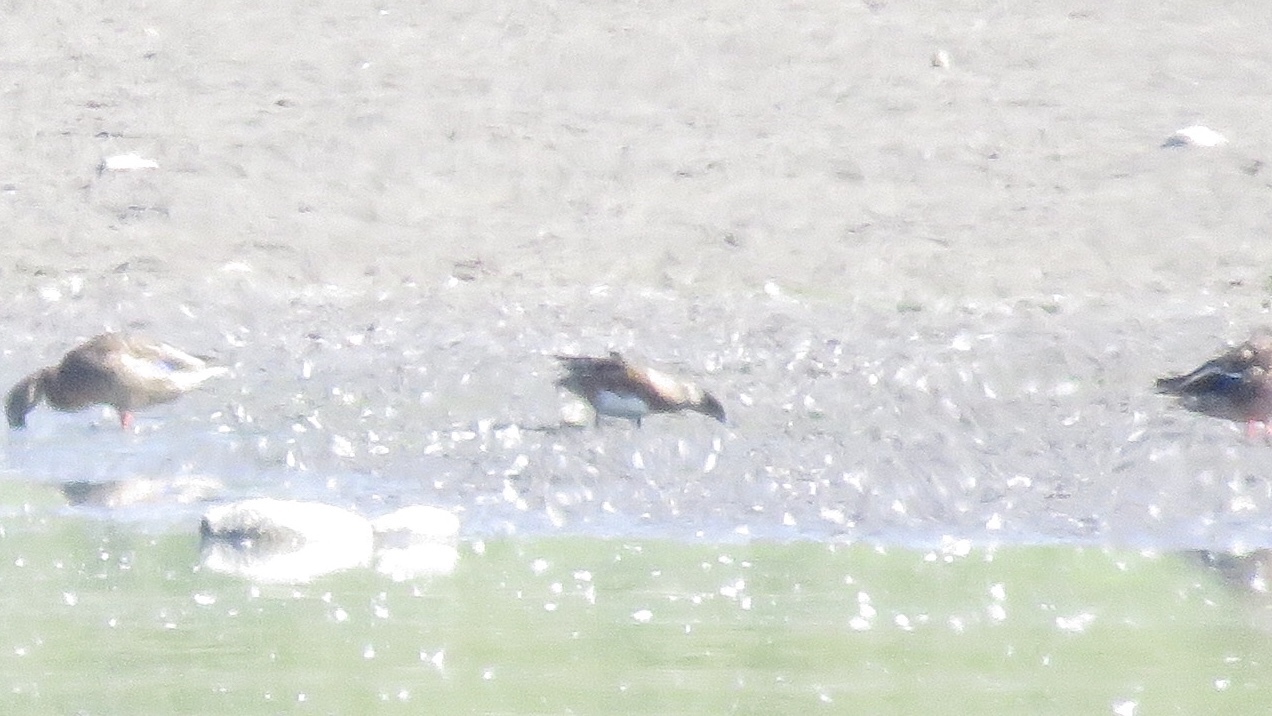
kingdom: Animalia
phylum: Chordata
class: Aves
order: Anseriformes
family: Anatidae
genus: Mareca
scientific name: Mareca americana
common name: American wigeon
